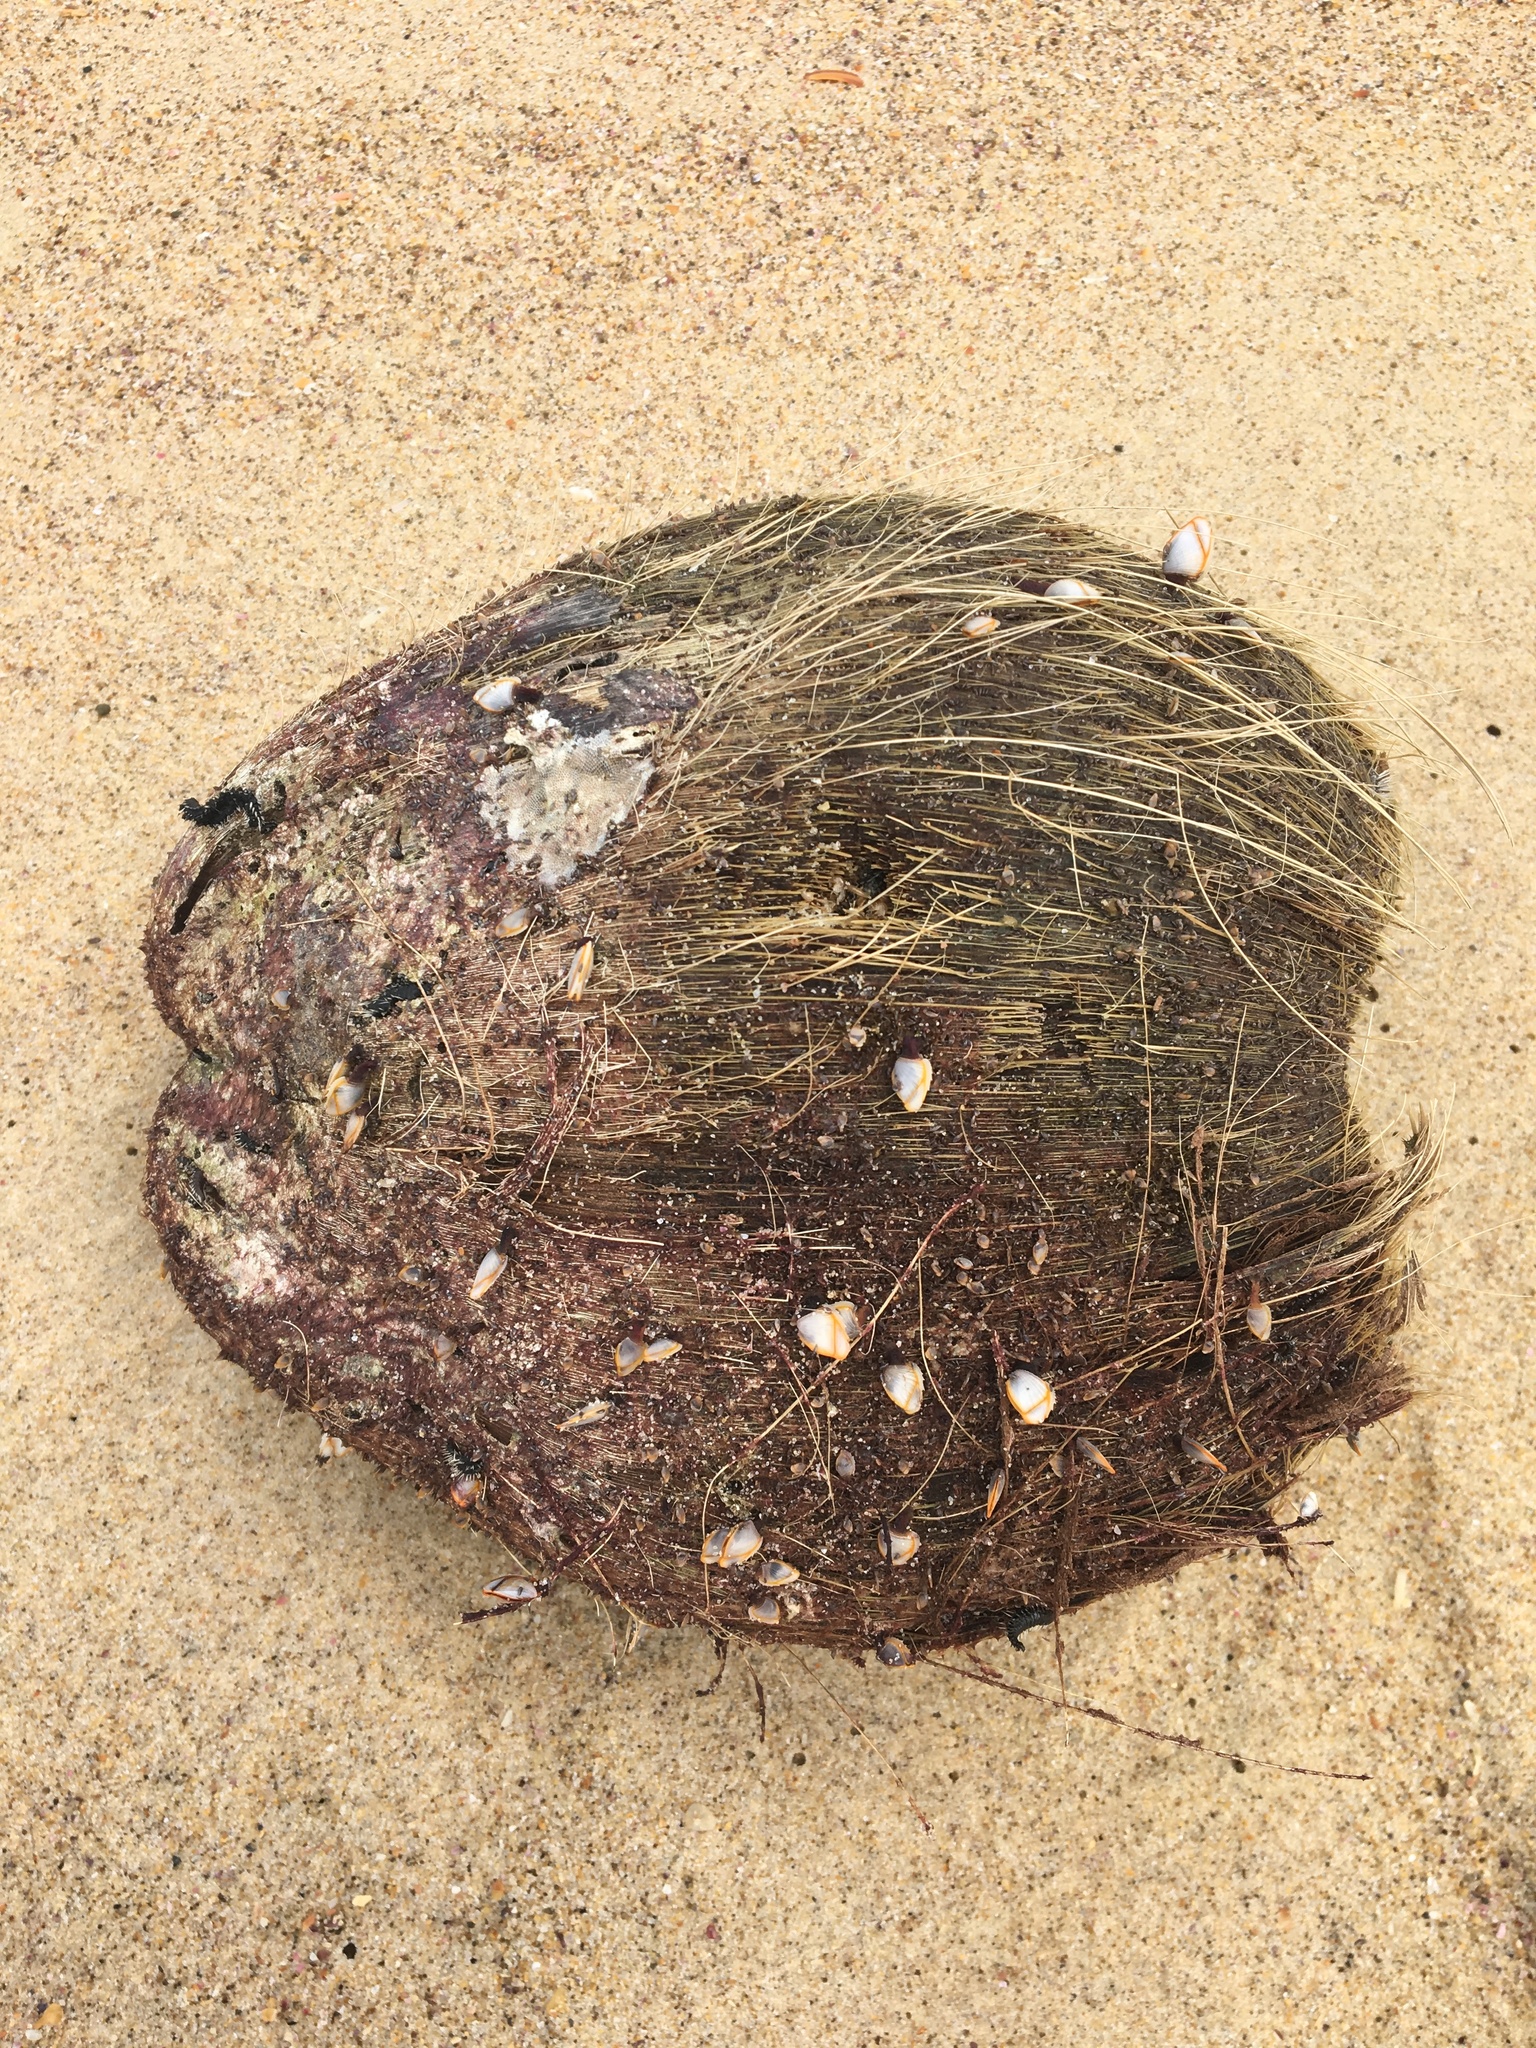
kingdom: Plantae
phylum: Tracheophyta
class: Liliopsida
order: Arecales
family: Arecaceae
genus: Cocos
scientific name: Cocos nucifera
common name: Coconut palm
